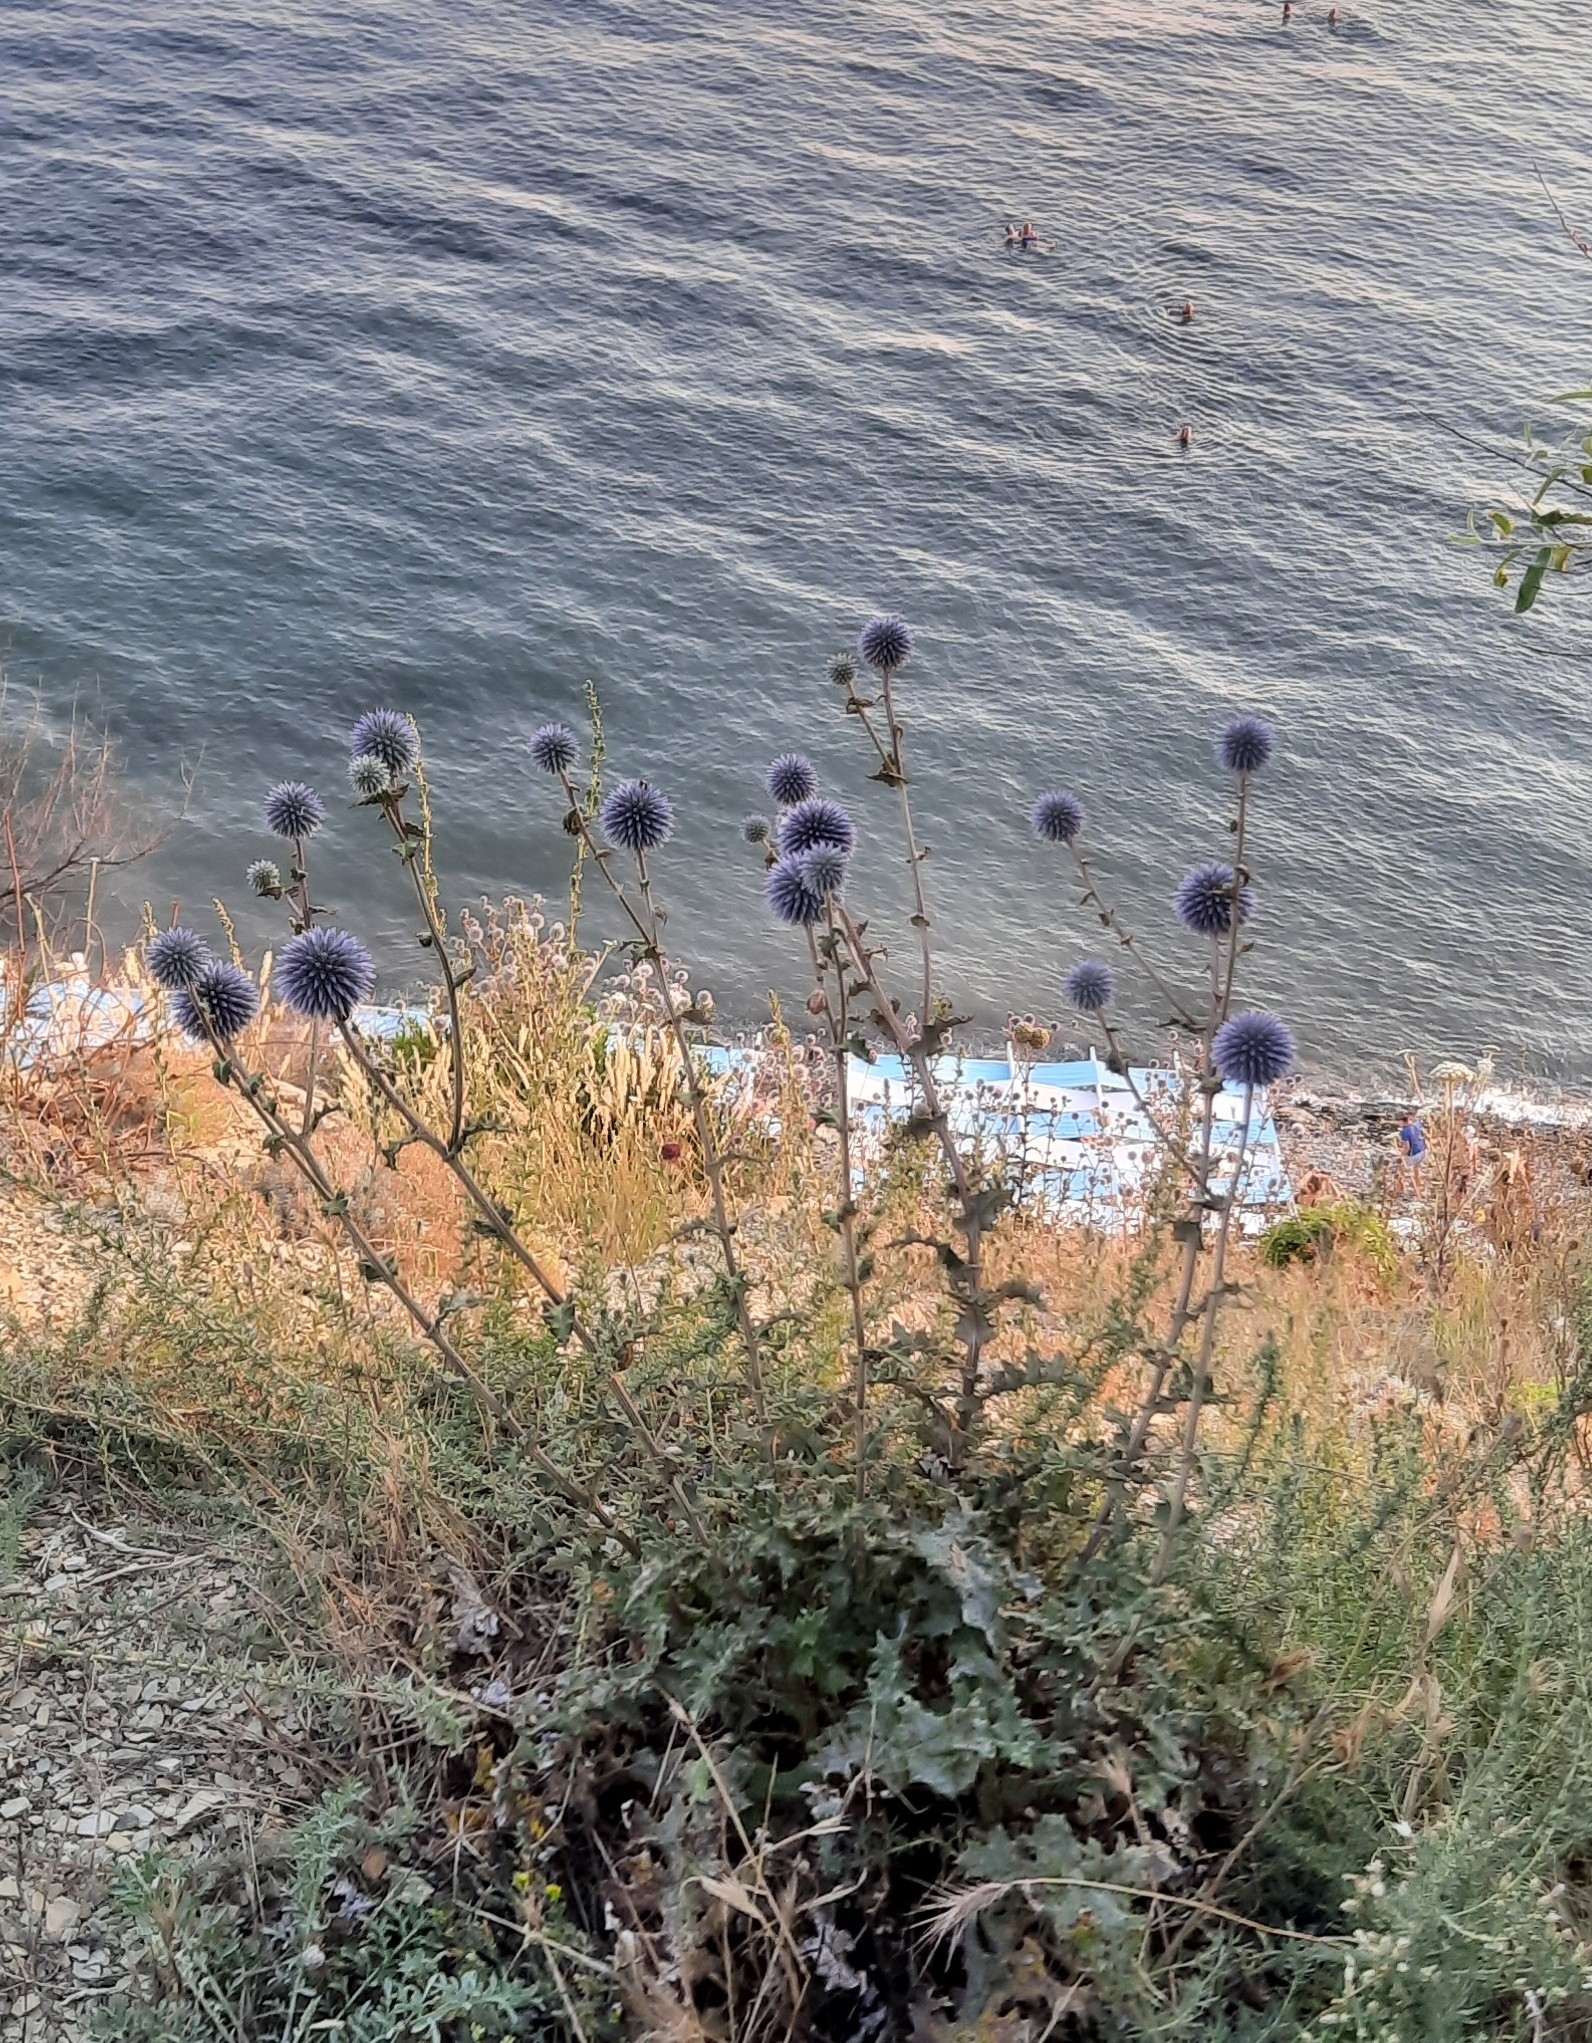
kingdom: Plantae
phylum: Tracheophyta
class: Magnoliopsida
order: Asterales
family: Asteraceae
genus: Echinops
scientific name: Echinops armatus
